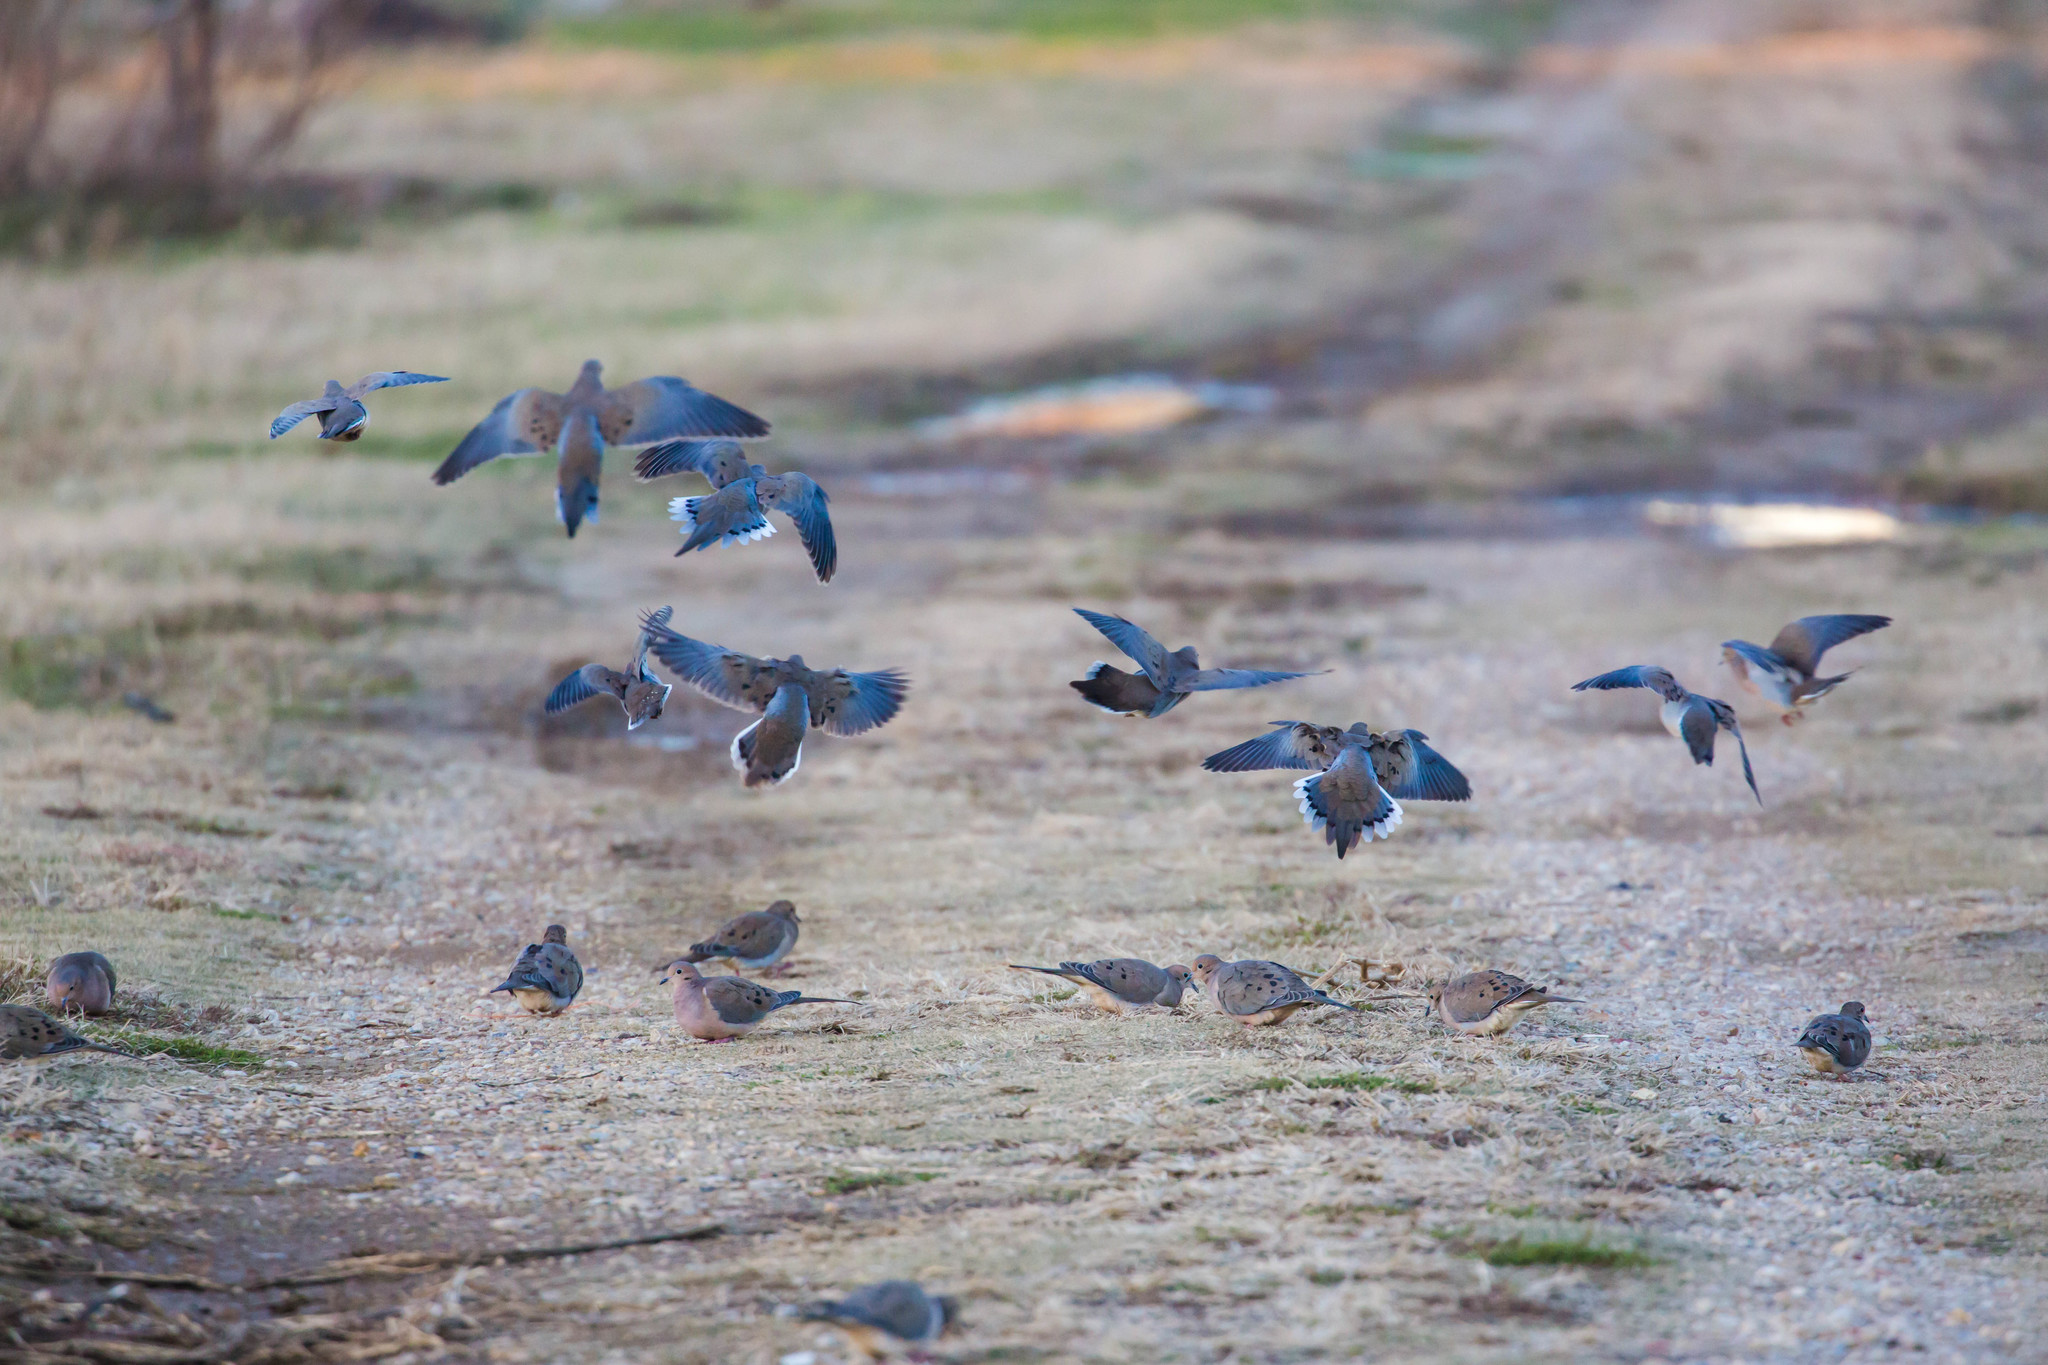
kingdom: Animalia
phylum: Chordata
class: Aves
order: Columbiformes
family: Columbidae
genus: Zenaida
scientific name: Zenaida macroura
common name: Mourning dove
